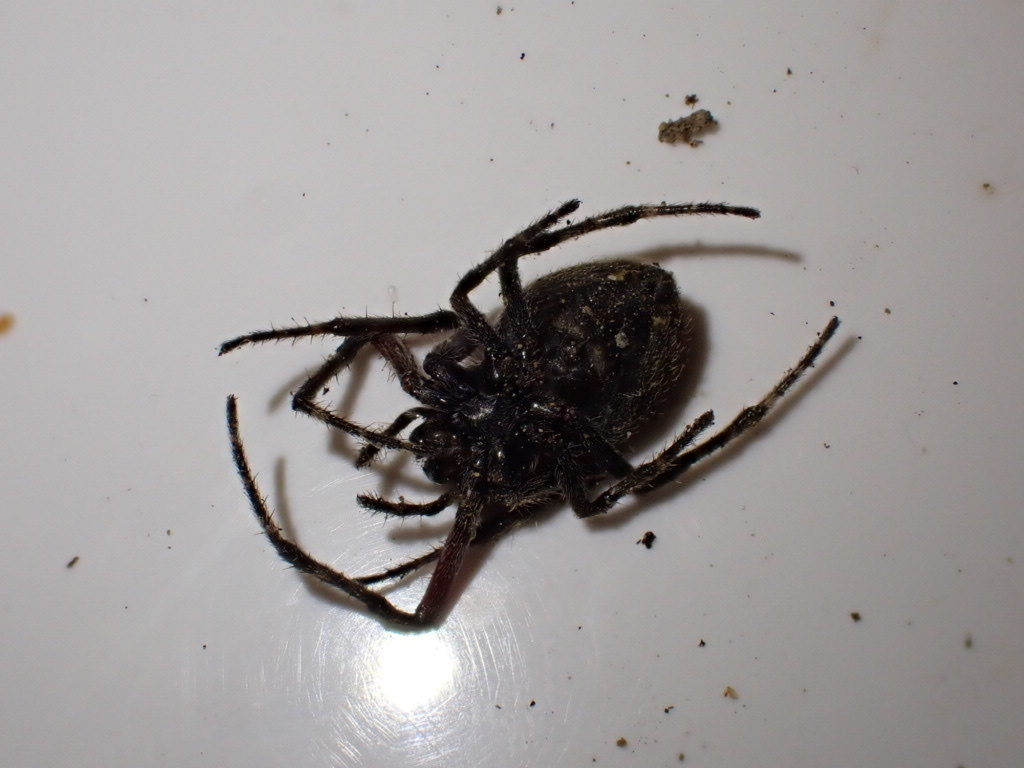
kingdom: Animalia
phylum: Arthropoda
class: Arachnida
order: Araneae
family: Araneidae
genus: Eriophora
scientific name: Eriophora pustulosa
